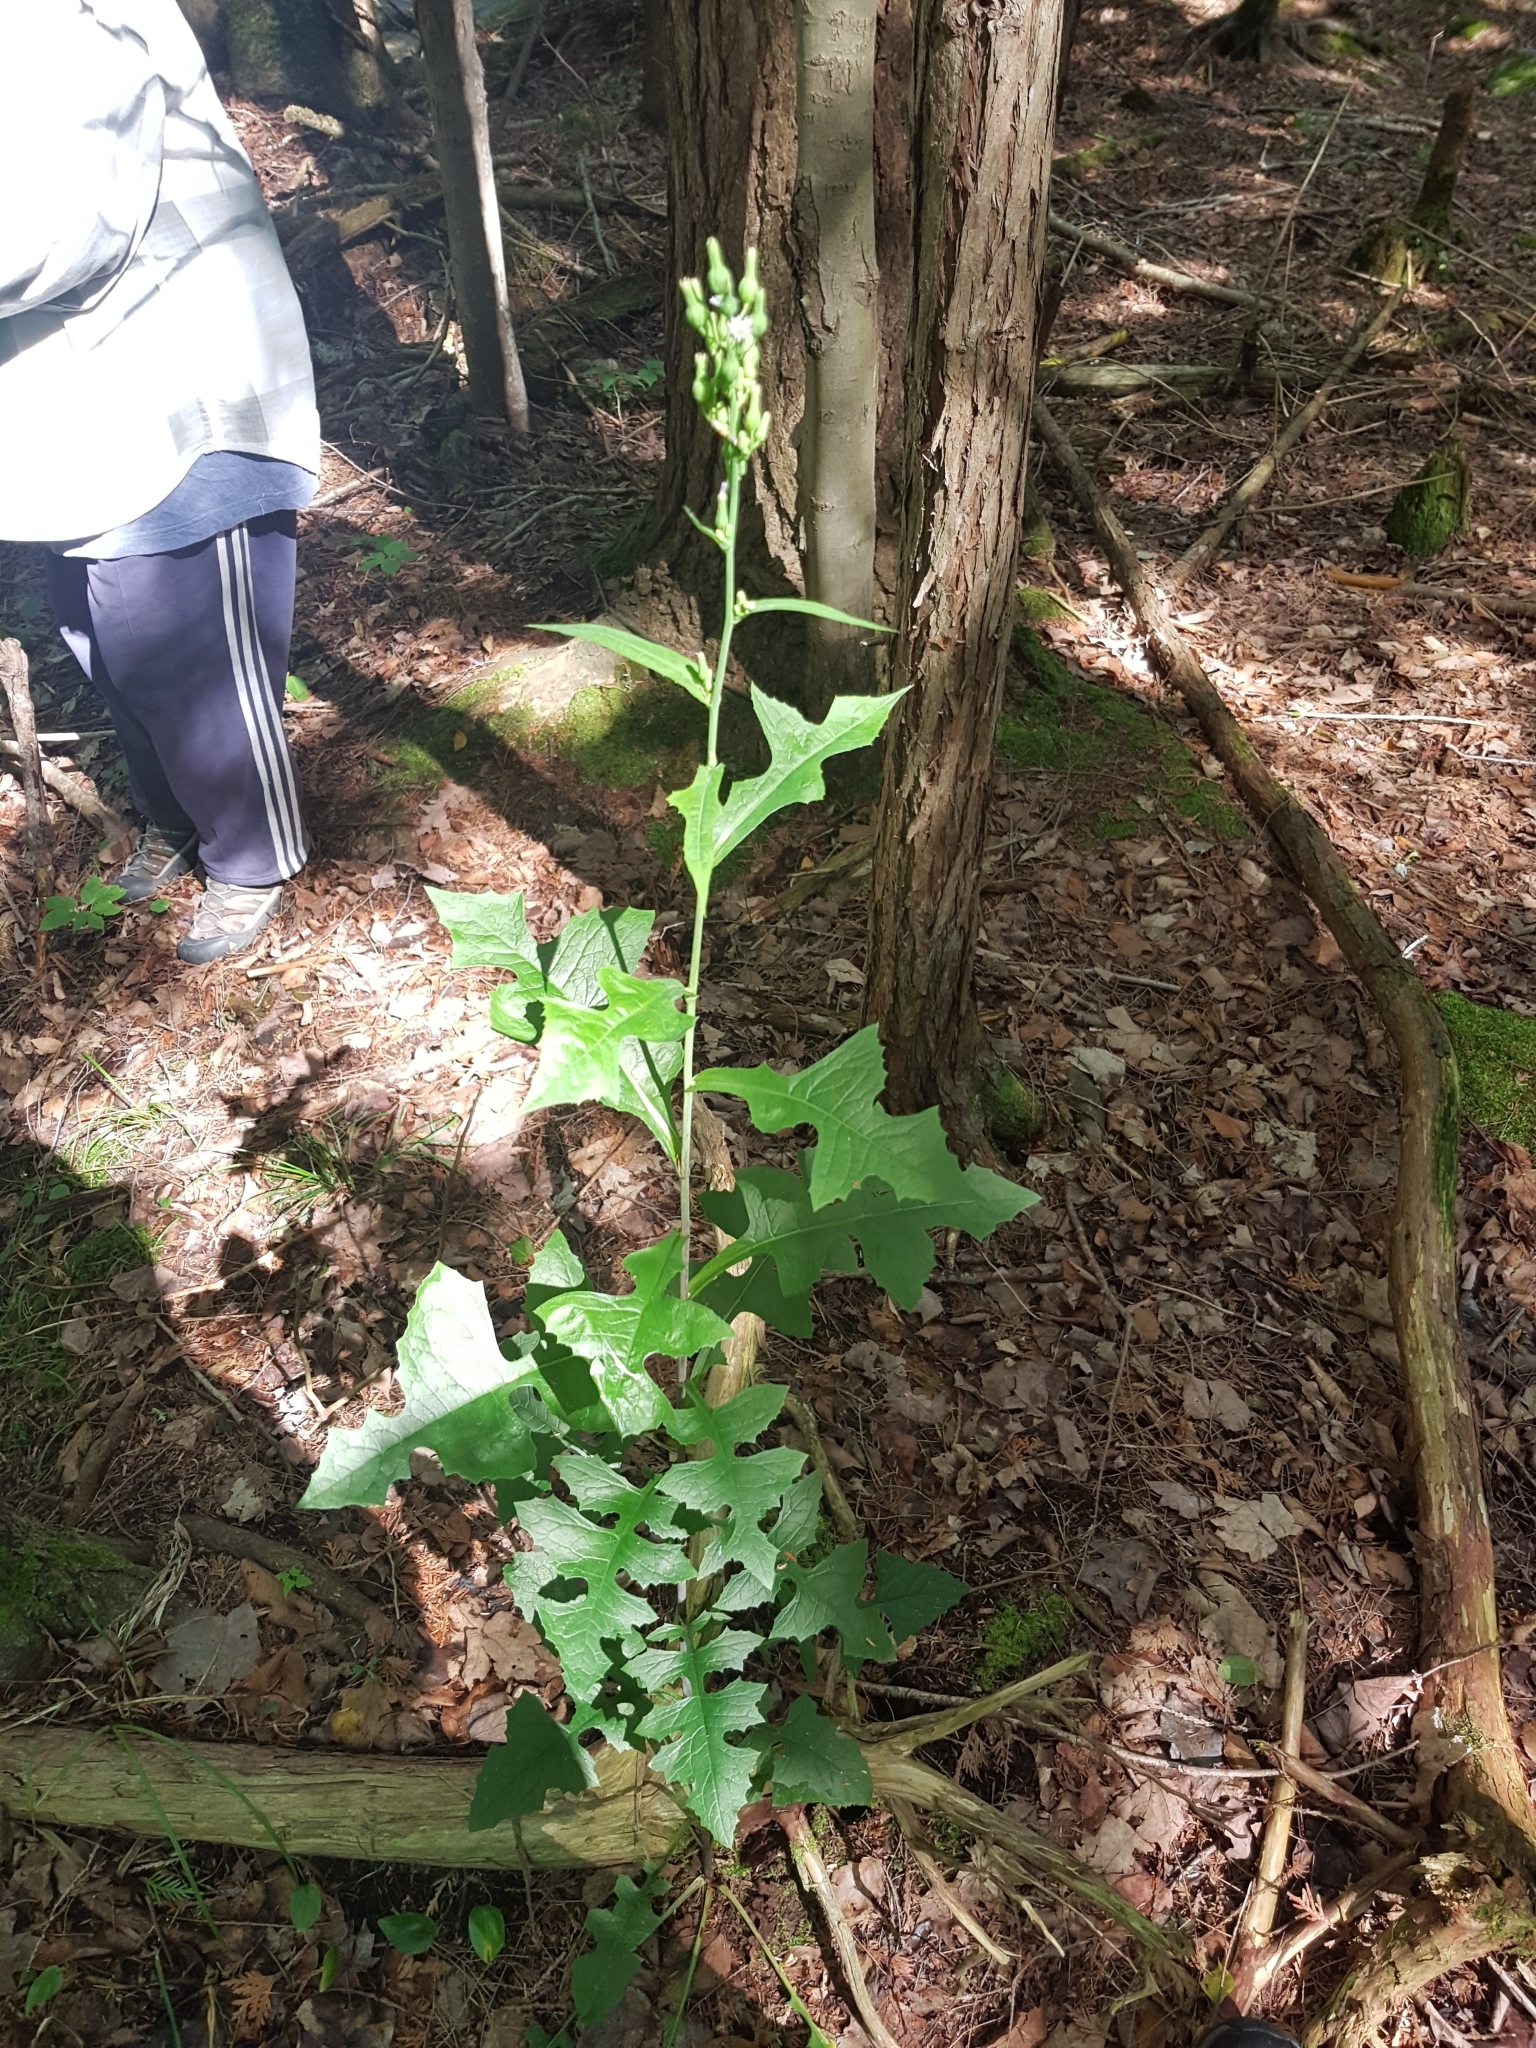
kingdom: Plantae
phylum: Tracheophyta
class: Magnoliopsida
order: Asterales
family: Asteraceae
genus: Lactuca
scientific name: Lactuca biennis
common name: Blue wood lettuce
